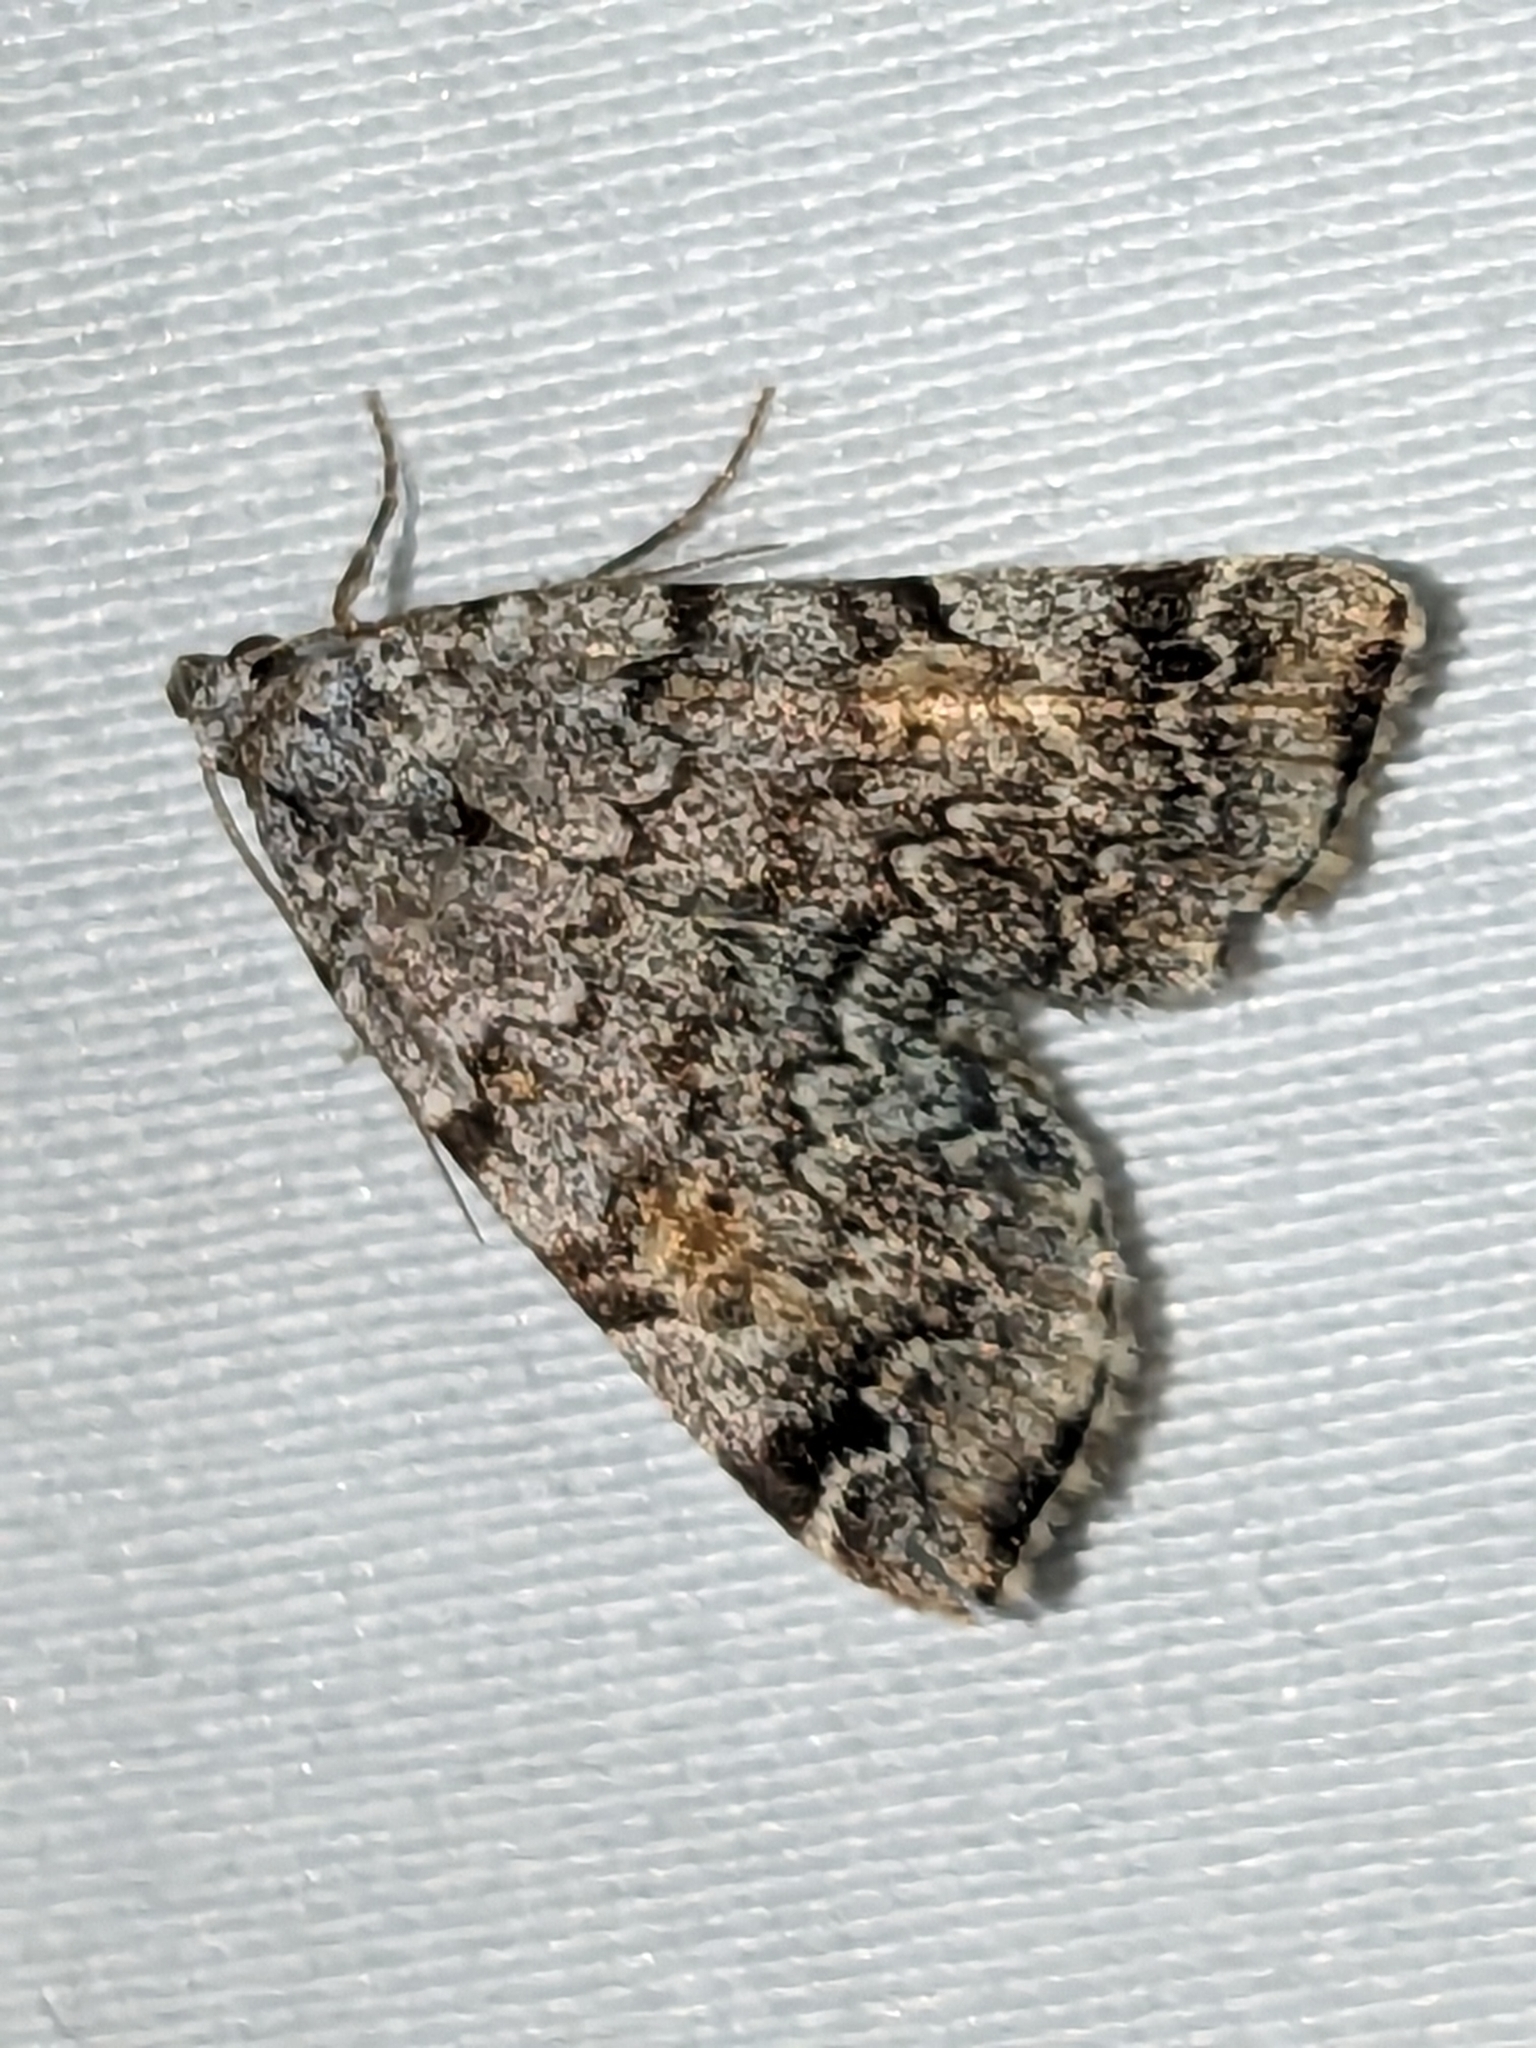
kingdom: Animalia
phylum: Arthropoda
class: Insecta
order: Lepidoptera
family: Erebidae
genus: Idia
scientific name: Idia americalis
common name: American idia moth
